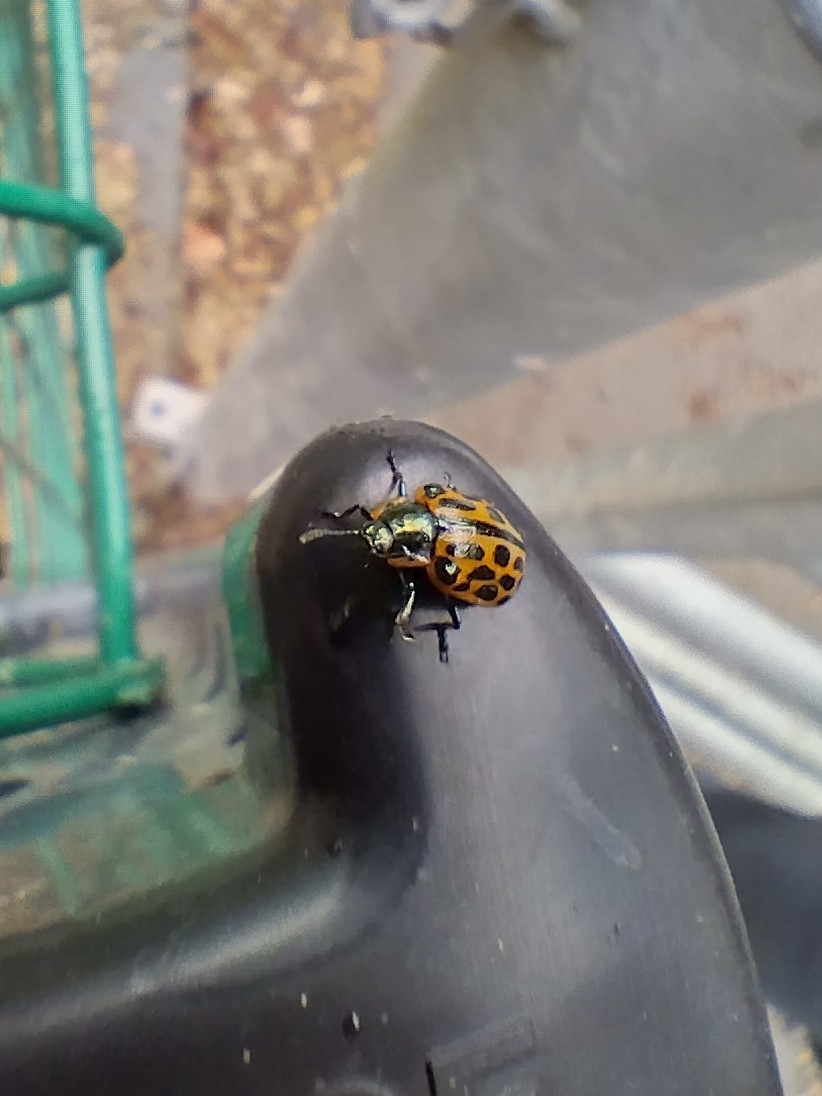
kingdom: Animalia
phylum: Arthropoda
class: Insecta
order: Coleoptera
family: Chrysomelidae
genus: Chrysomela
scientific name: Chrysomela vigintipunctata
